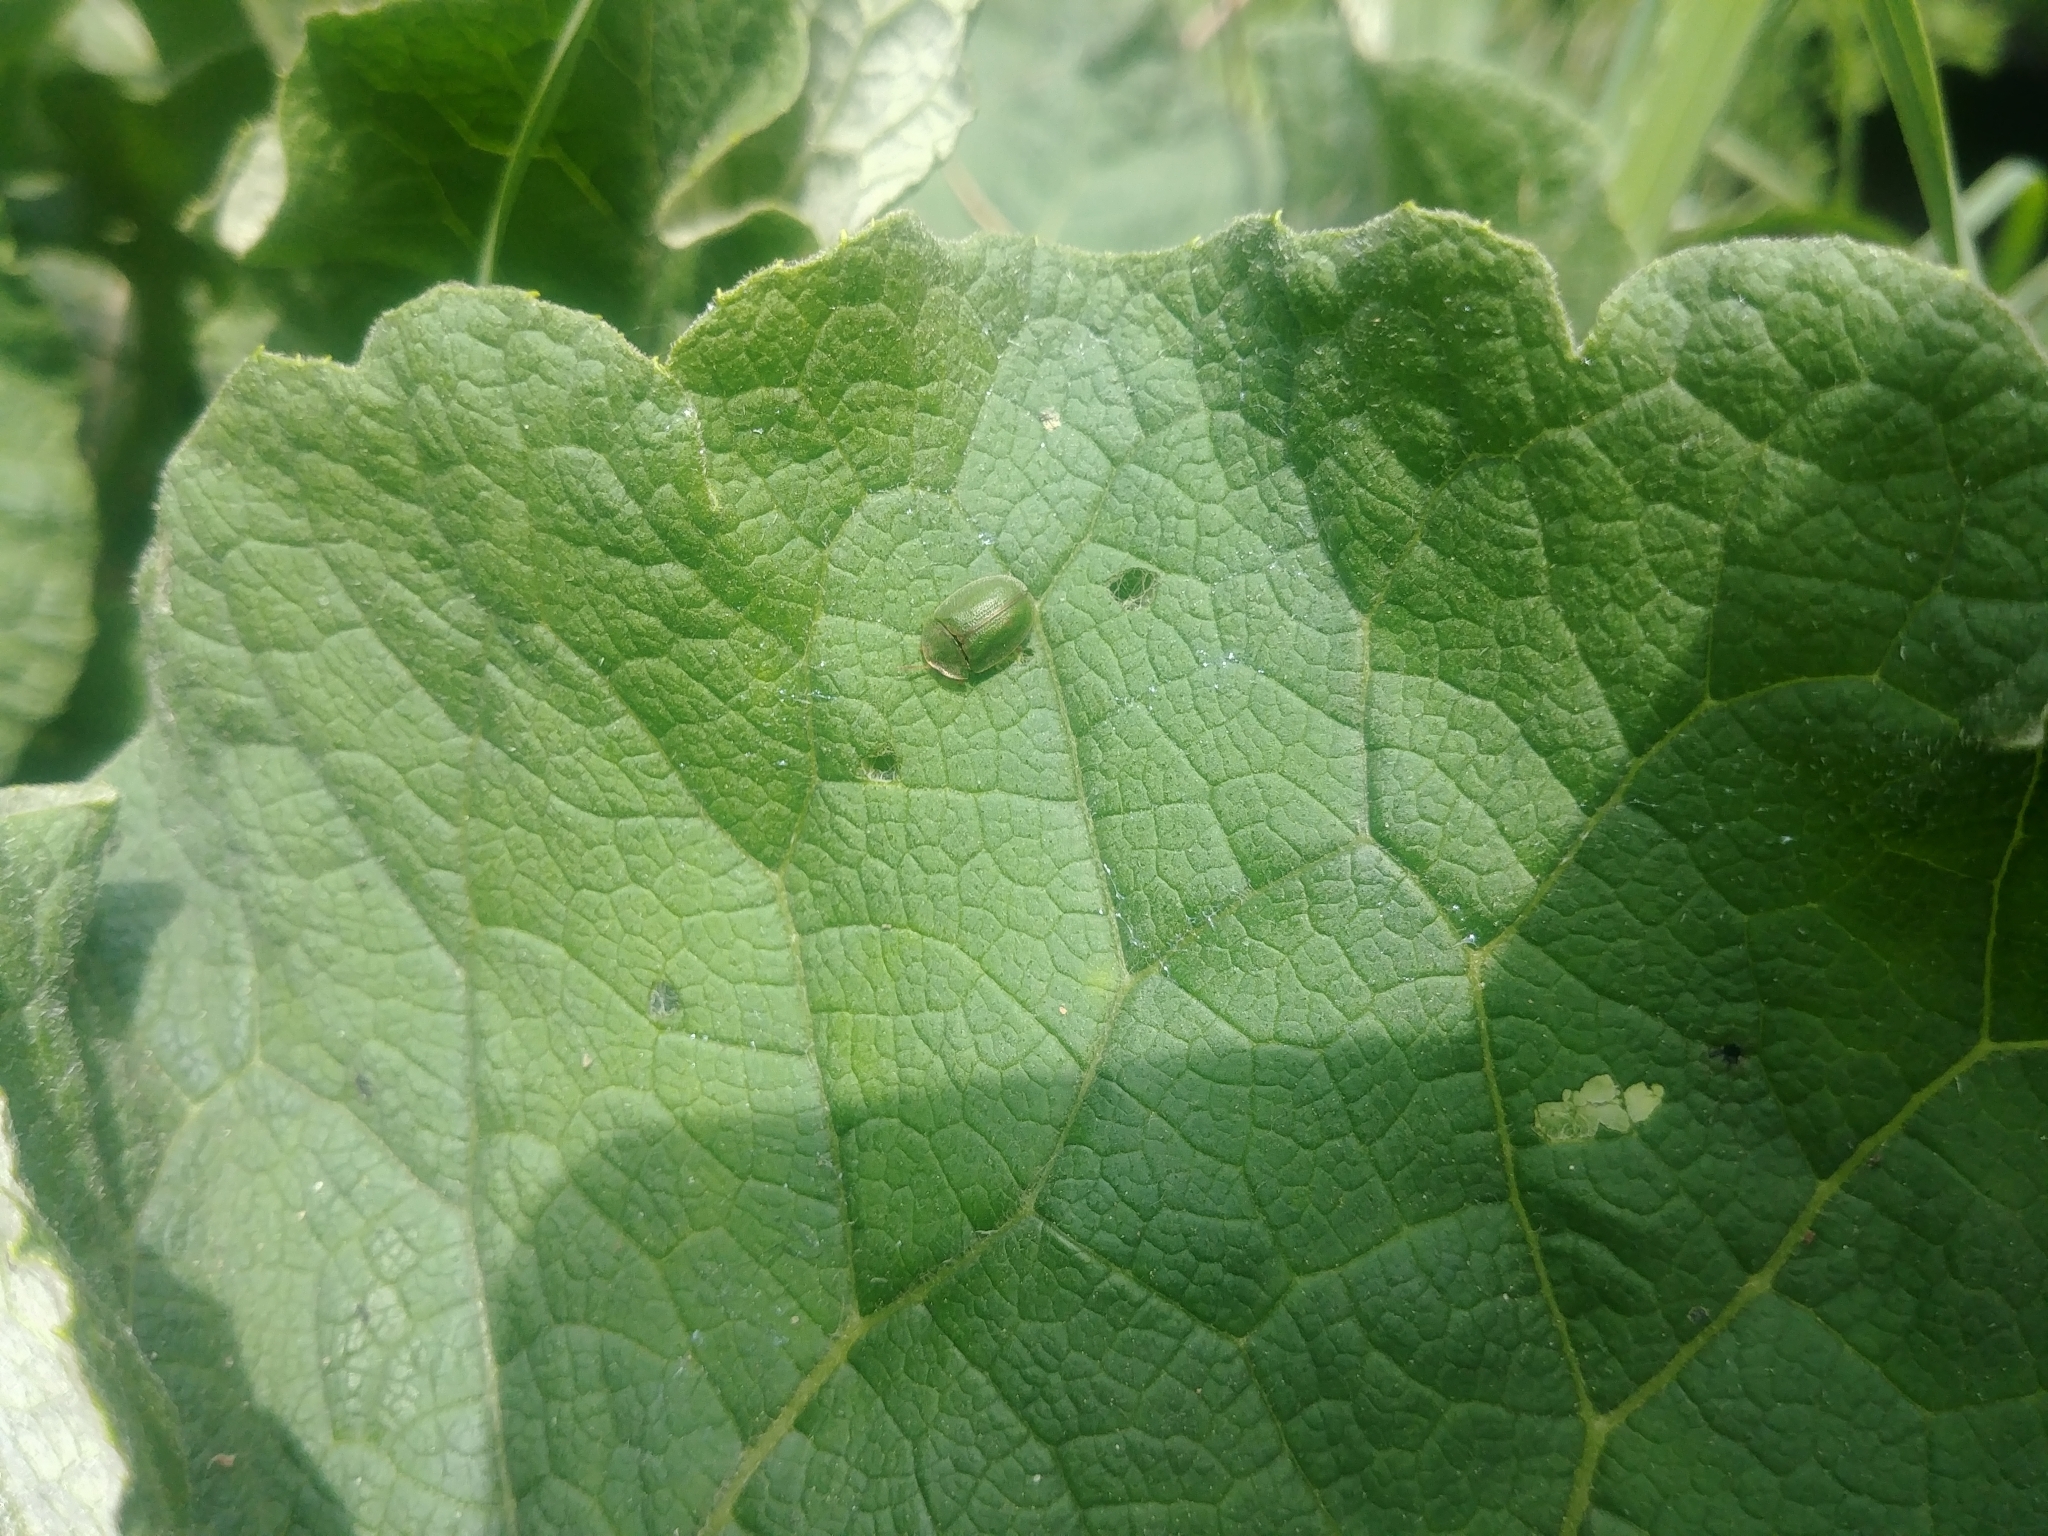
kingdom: Animalia
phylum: Arthropoda
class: Insecta
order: Coleoptera
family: Chrysomelidae
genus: Cassida
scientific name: Cassida rubiginosa
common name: Thistle tortoise beetle
